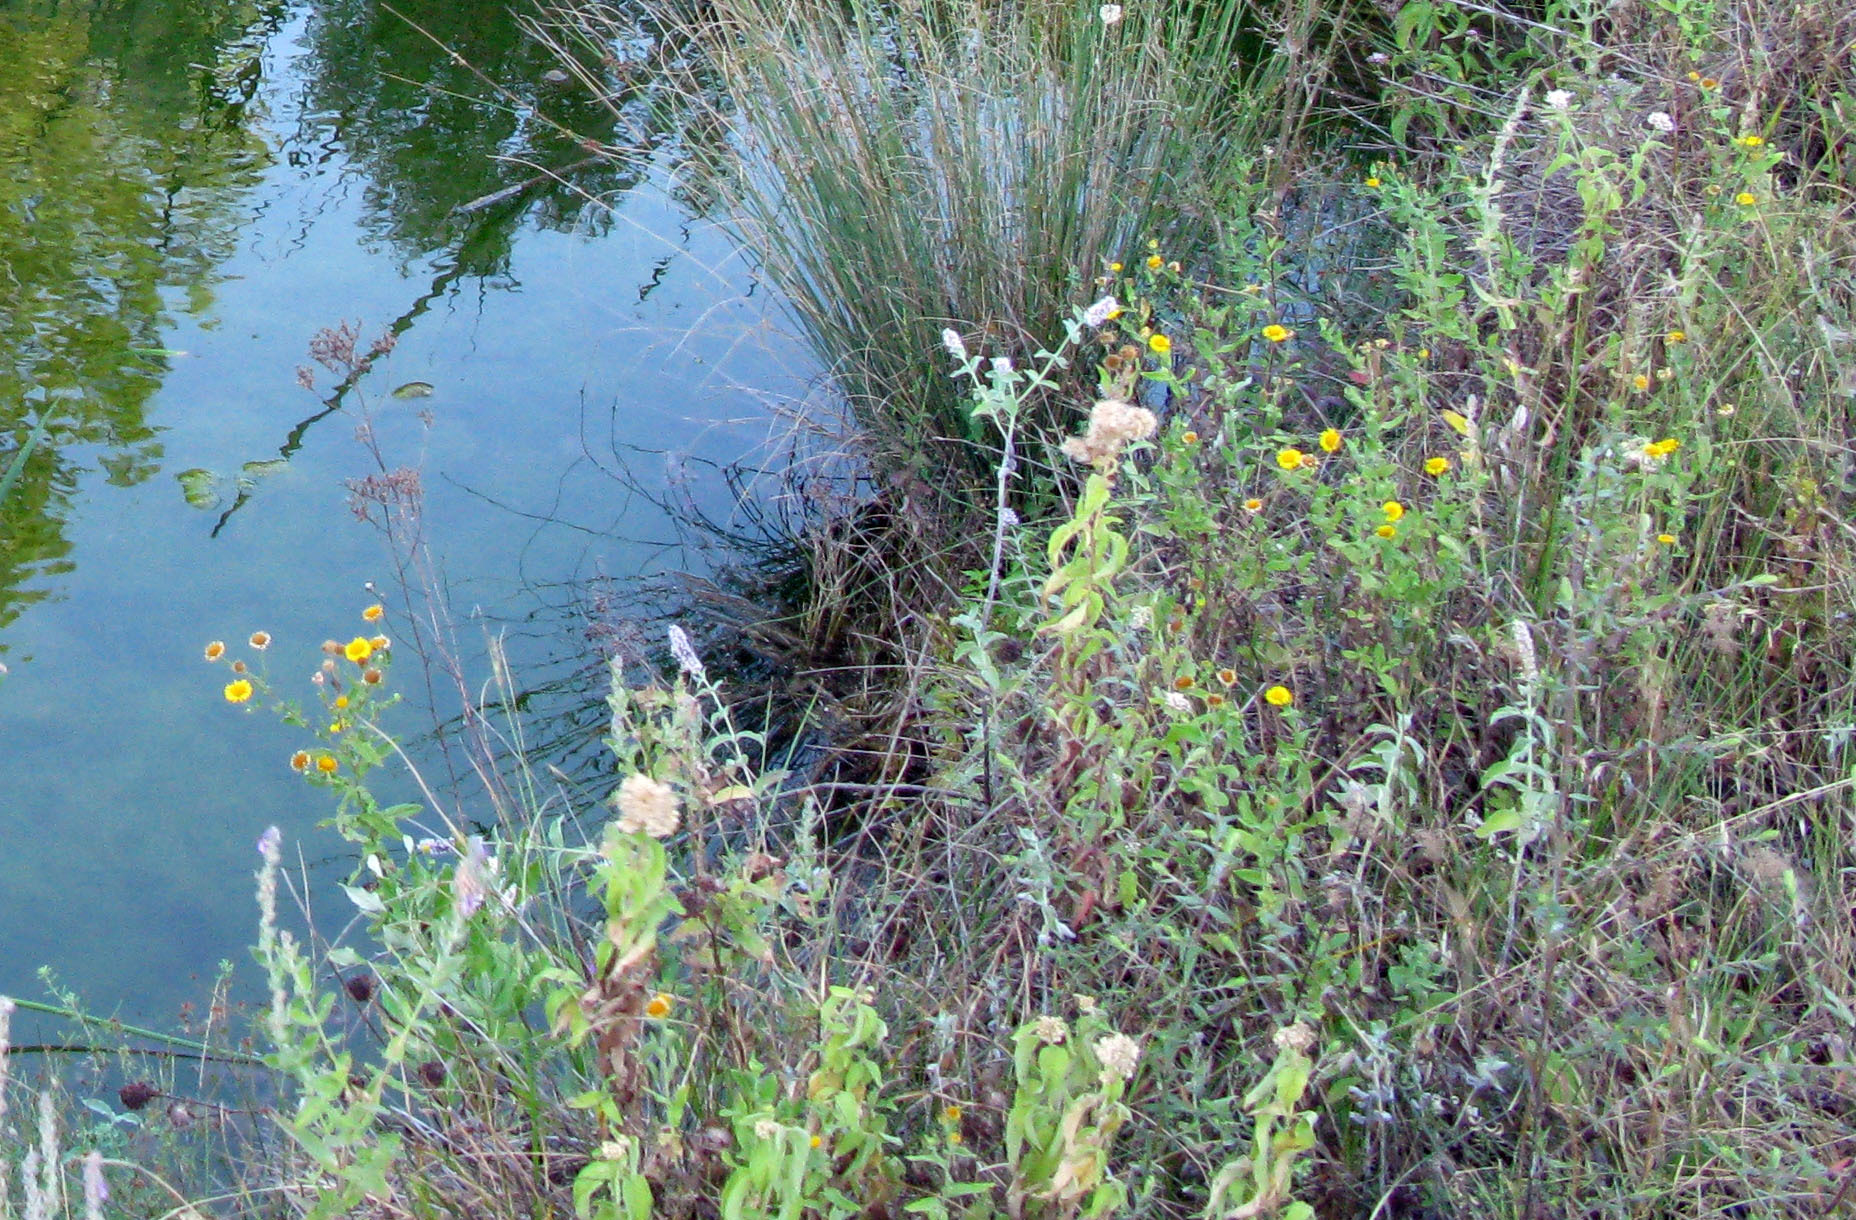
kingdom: Plantae
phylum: Tracheophyta
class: Magnoliopsida
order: Asterales
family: Asteraceae
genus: Pulicaria
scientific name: Pulicaria dysenterica
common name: Common fleabane
